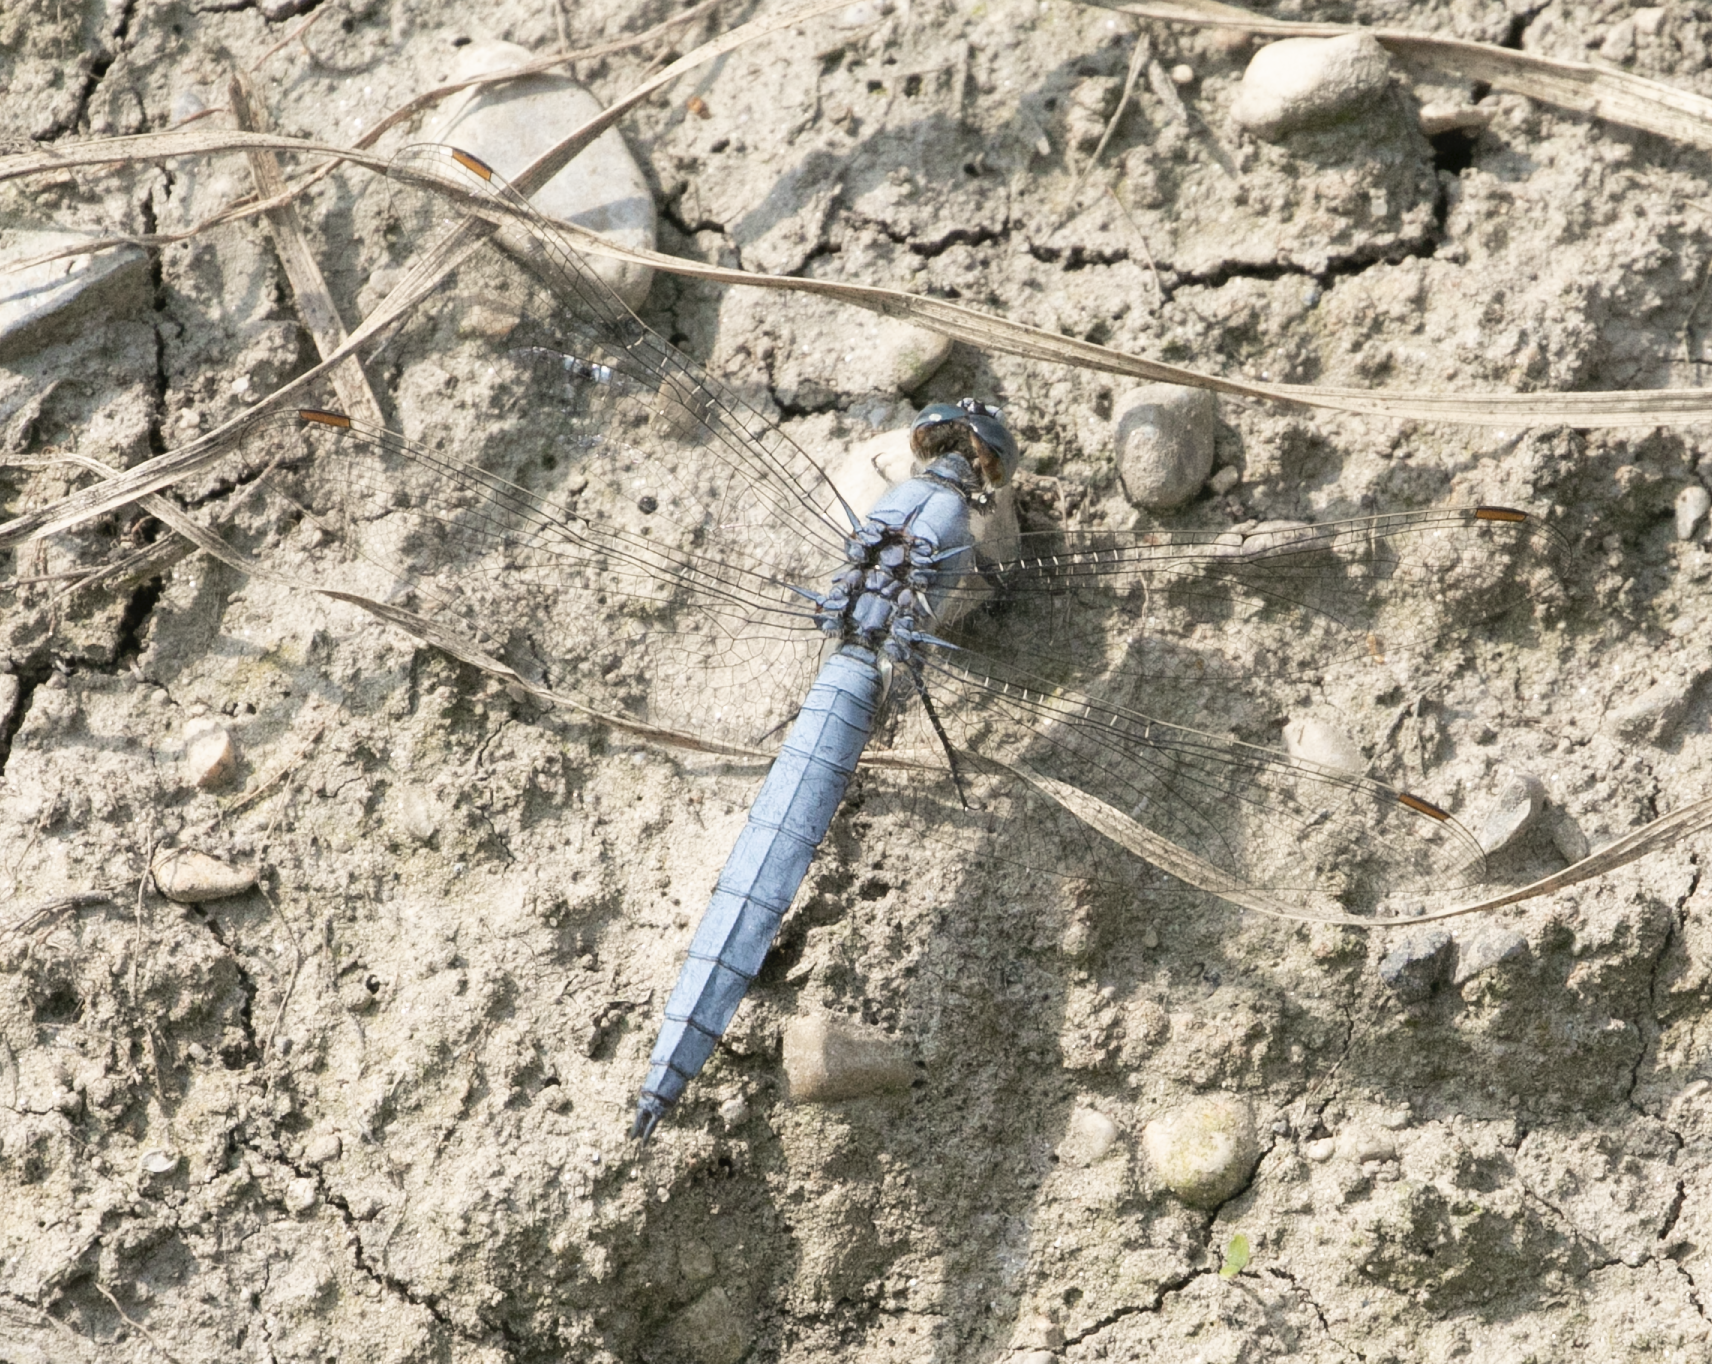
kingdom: Animalia
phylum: Arthropoda
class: Insecta
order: Odonata
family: Libellulidae
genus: Orthetrum
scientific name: Orthetrum brunneum
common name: Southern skimmer
